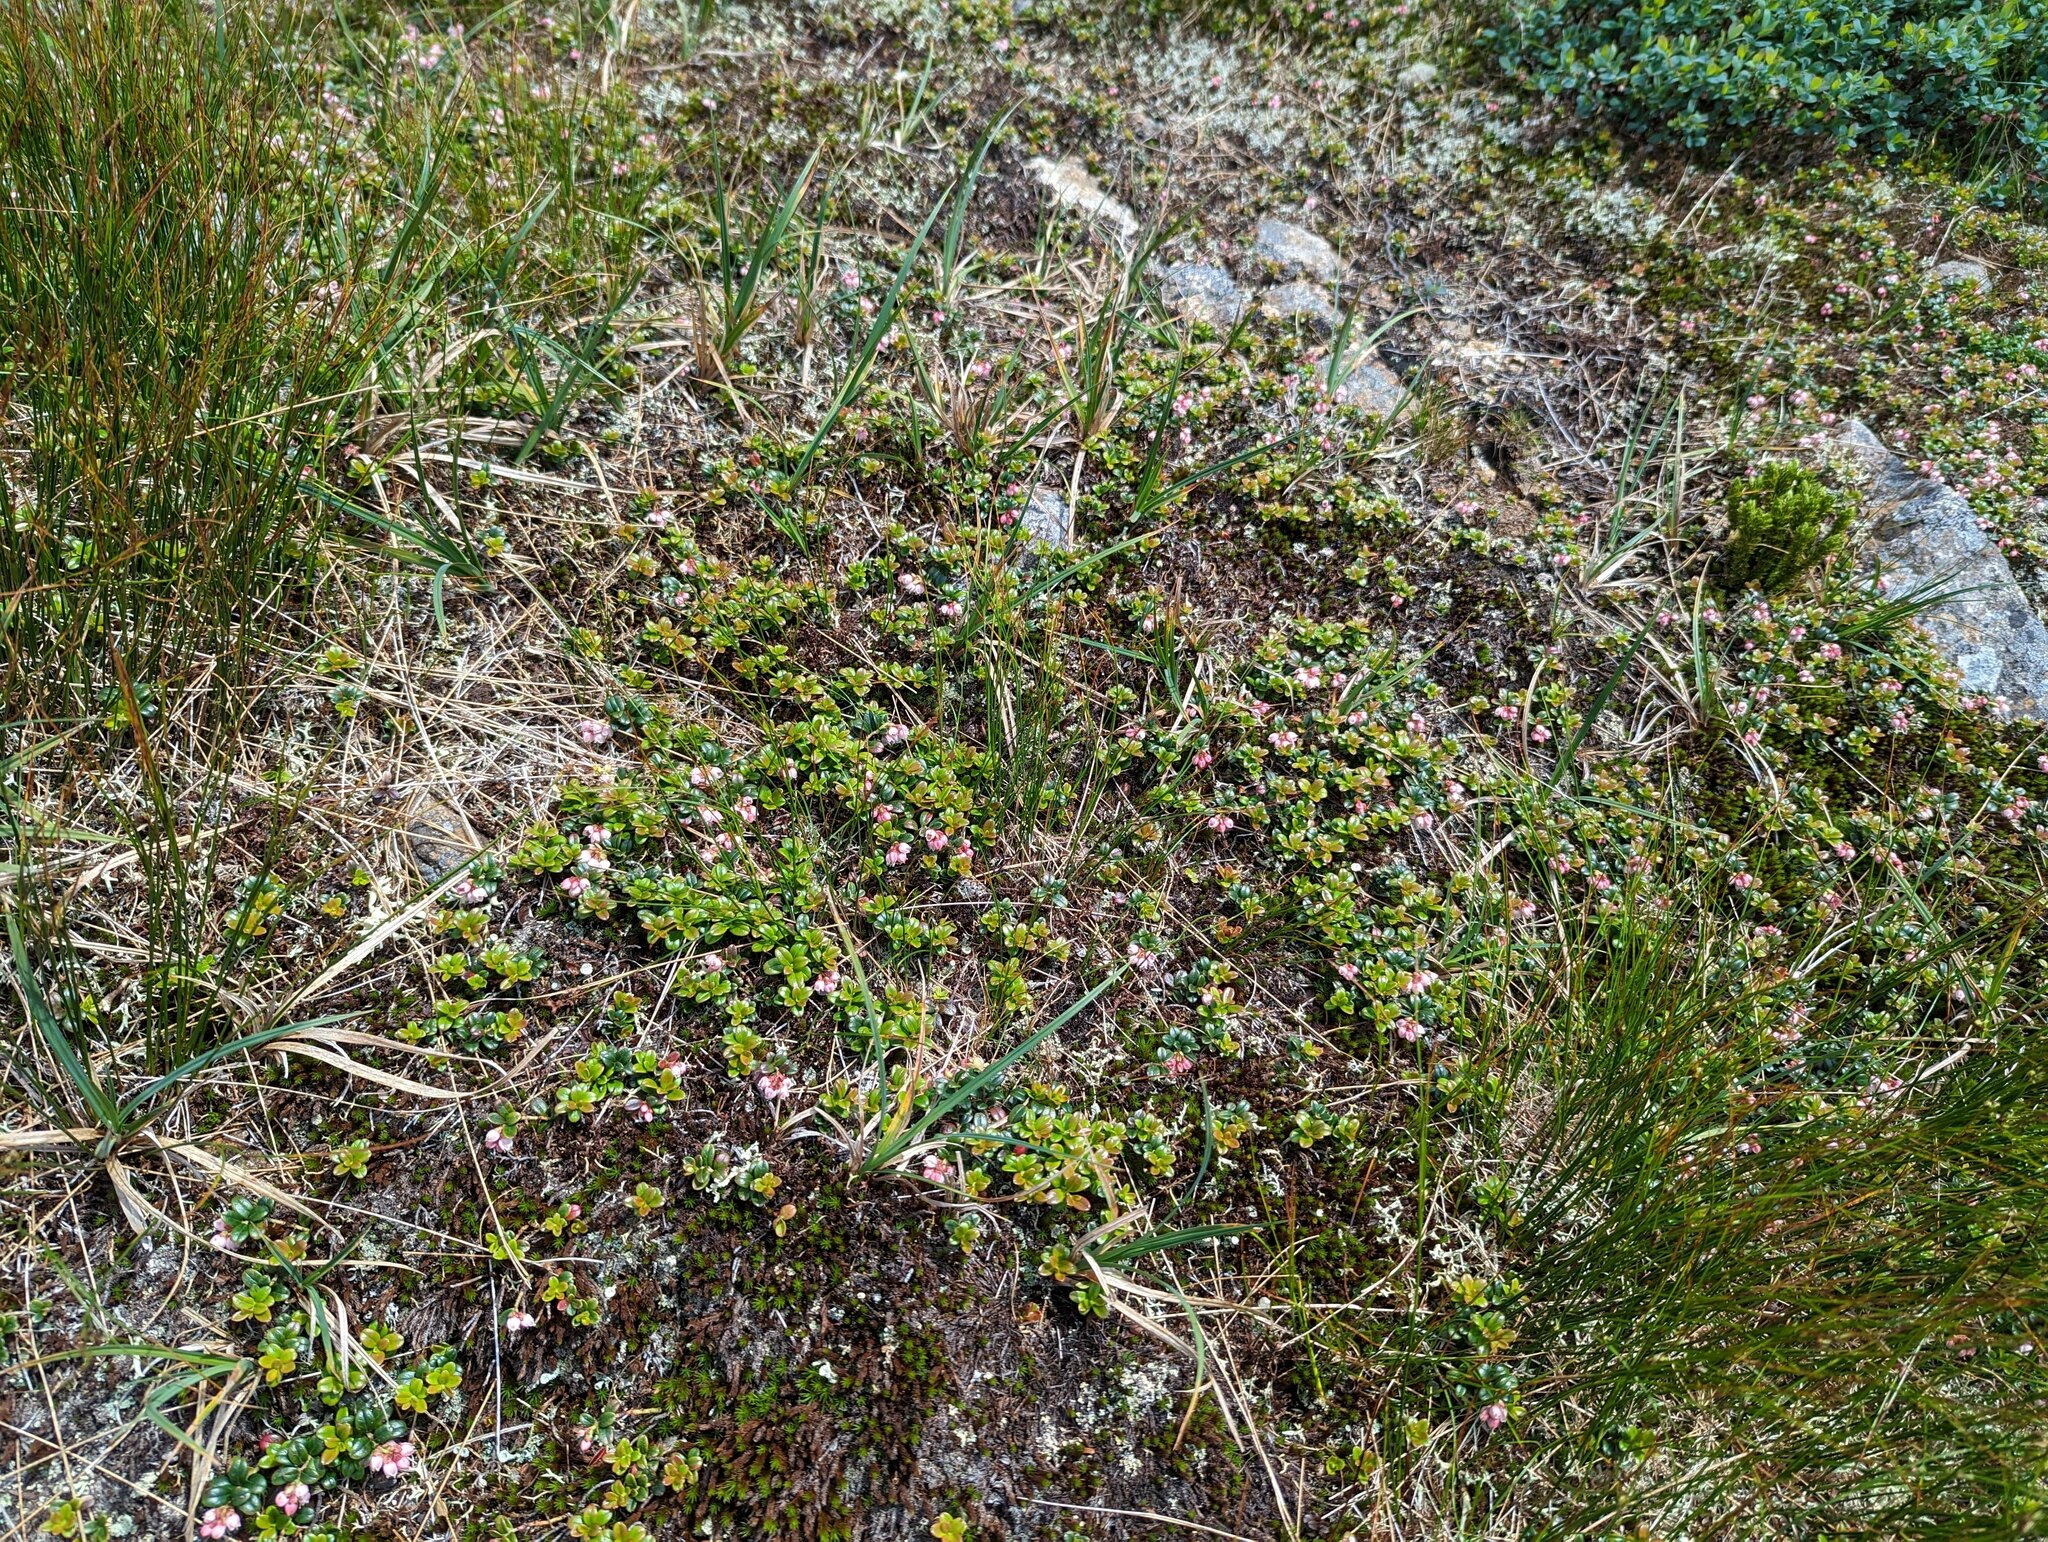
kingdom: Plantae
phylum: Tracheophyta
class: Magnoliopsida
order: Ericales
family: Ericaceae
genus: Vaccinium
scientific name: Vaccinium vitis-idaea
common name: Cowberry
